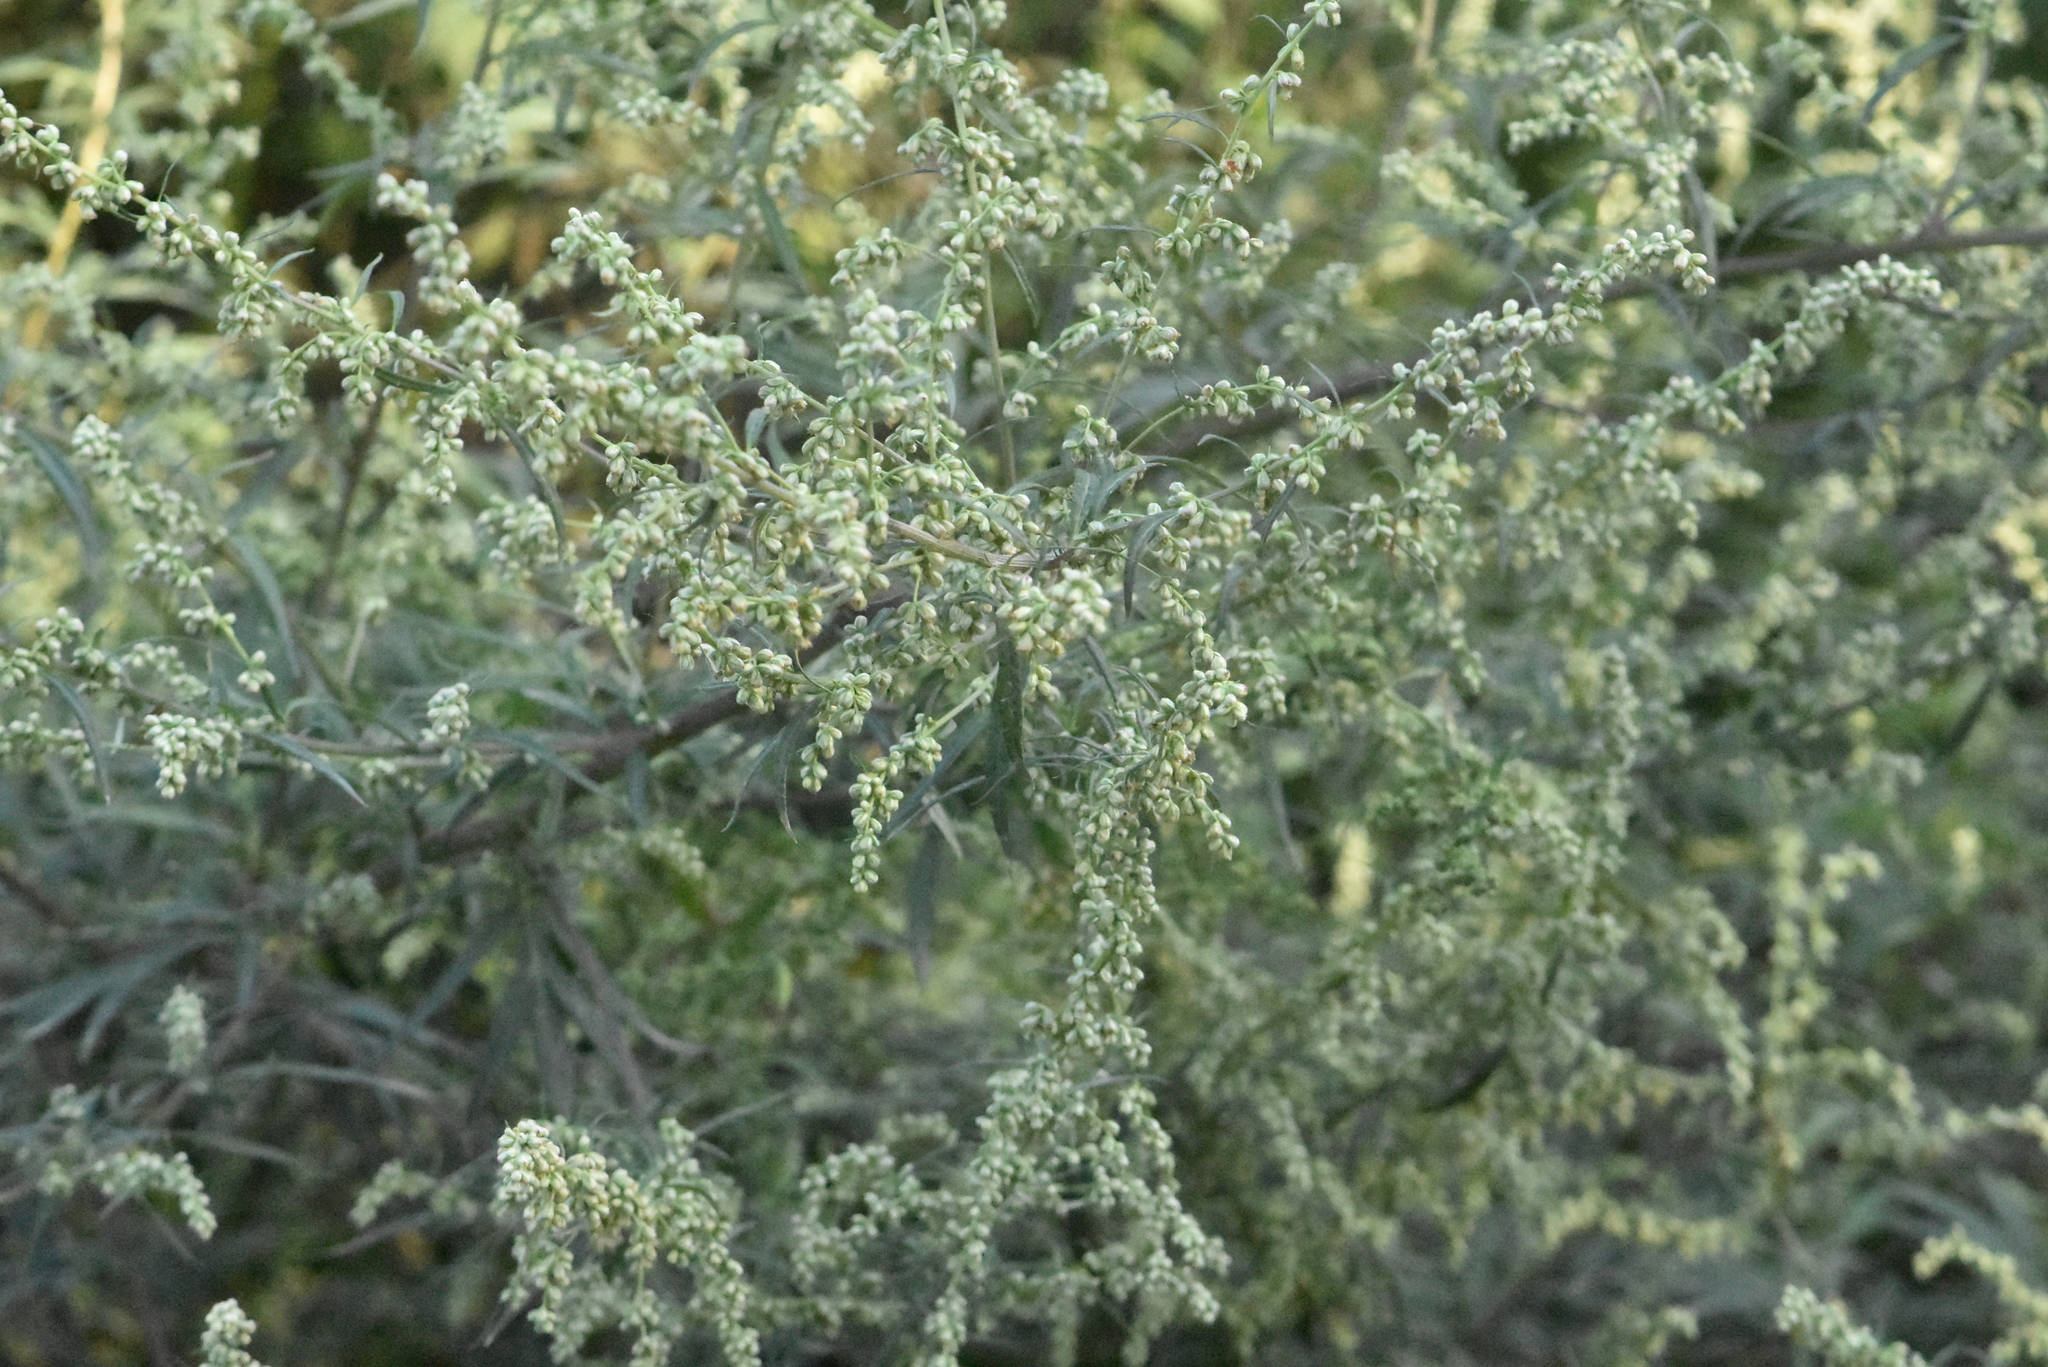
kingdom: Plantae
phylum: Tracheophyta
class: Magnoliopsida
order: Asterales
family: Asteraceae
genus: Artemisia
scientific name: Artemisia vulgaris
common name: Mugwort
